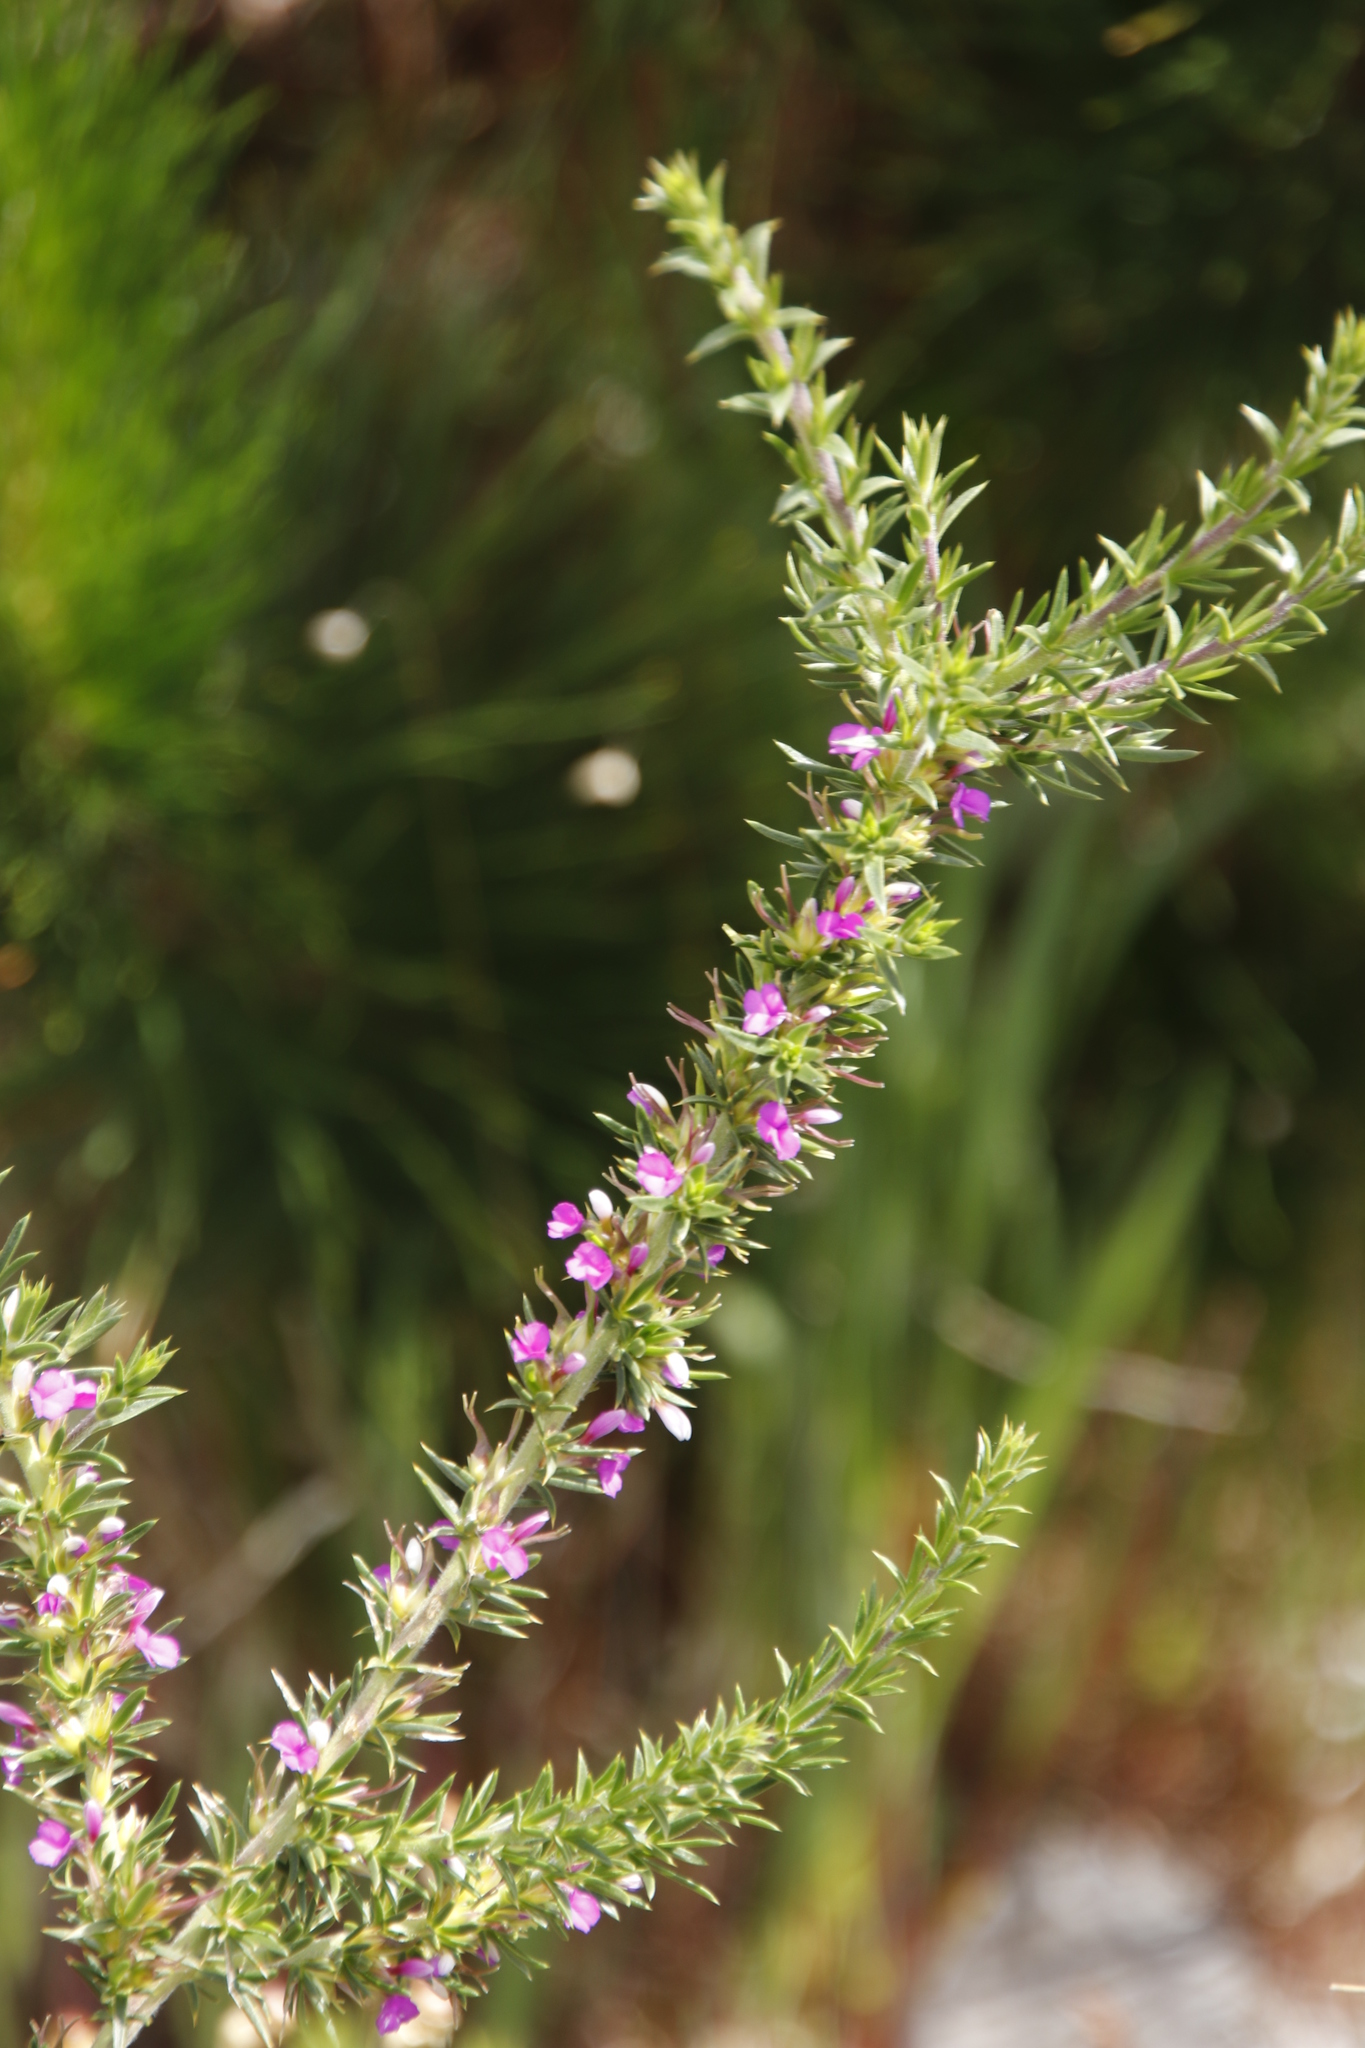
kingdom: Plantae
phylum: Tracheophyta
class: Magnoliopsida
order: Fabales
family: Polygalaceae
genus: Muraltia
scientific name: Muraltia heisteria
